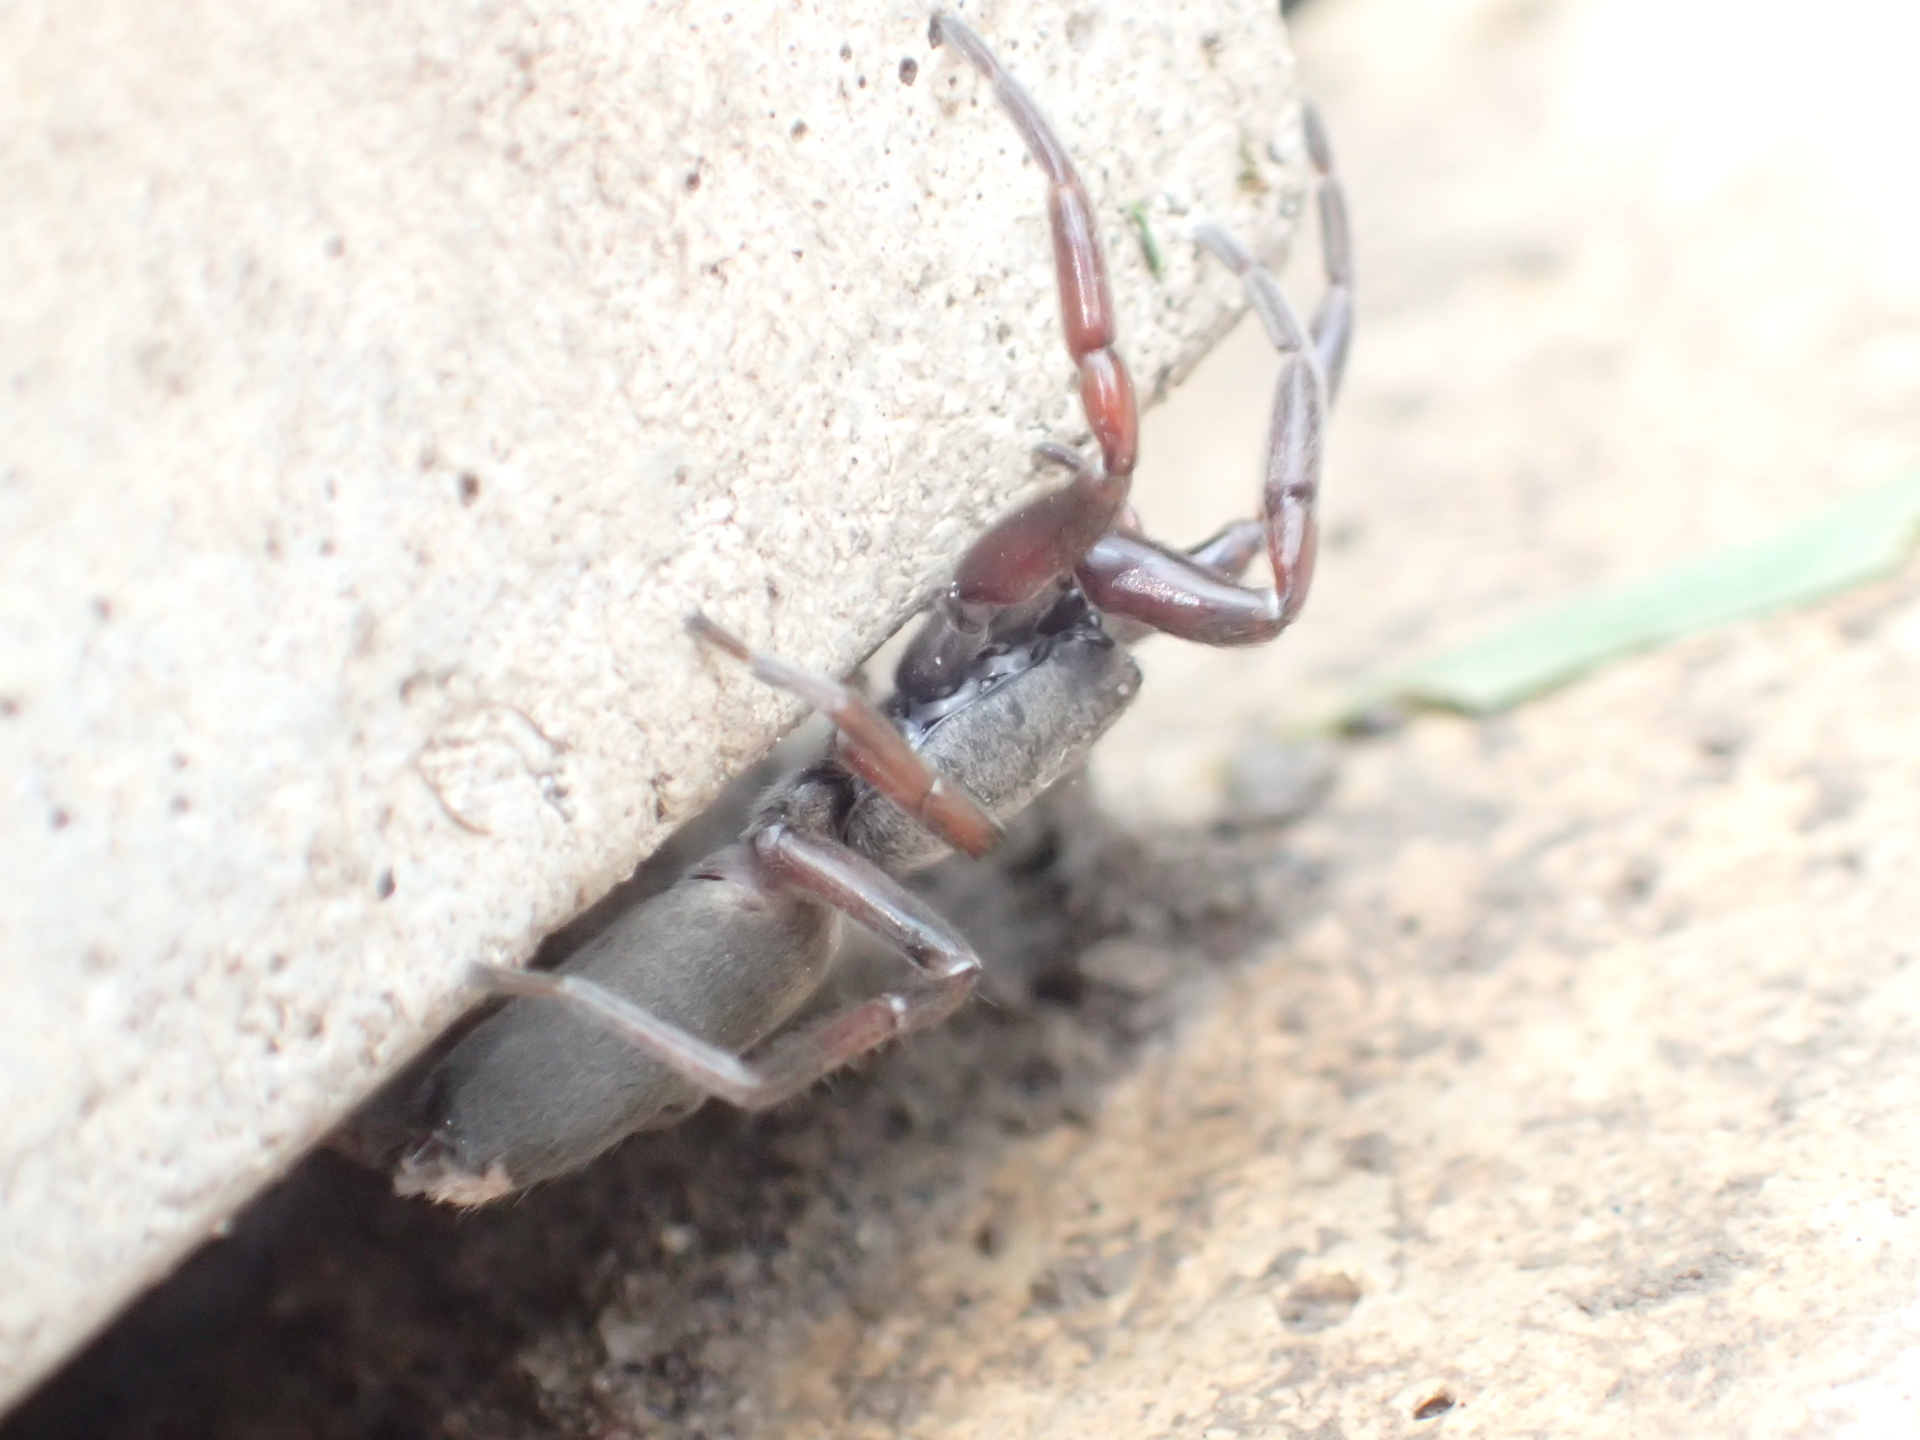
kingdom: Animalia
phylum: Arthropoda
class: Arachnida
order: Araneae
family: Lamponidae
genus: Lampona
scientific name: Lampona murina
